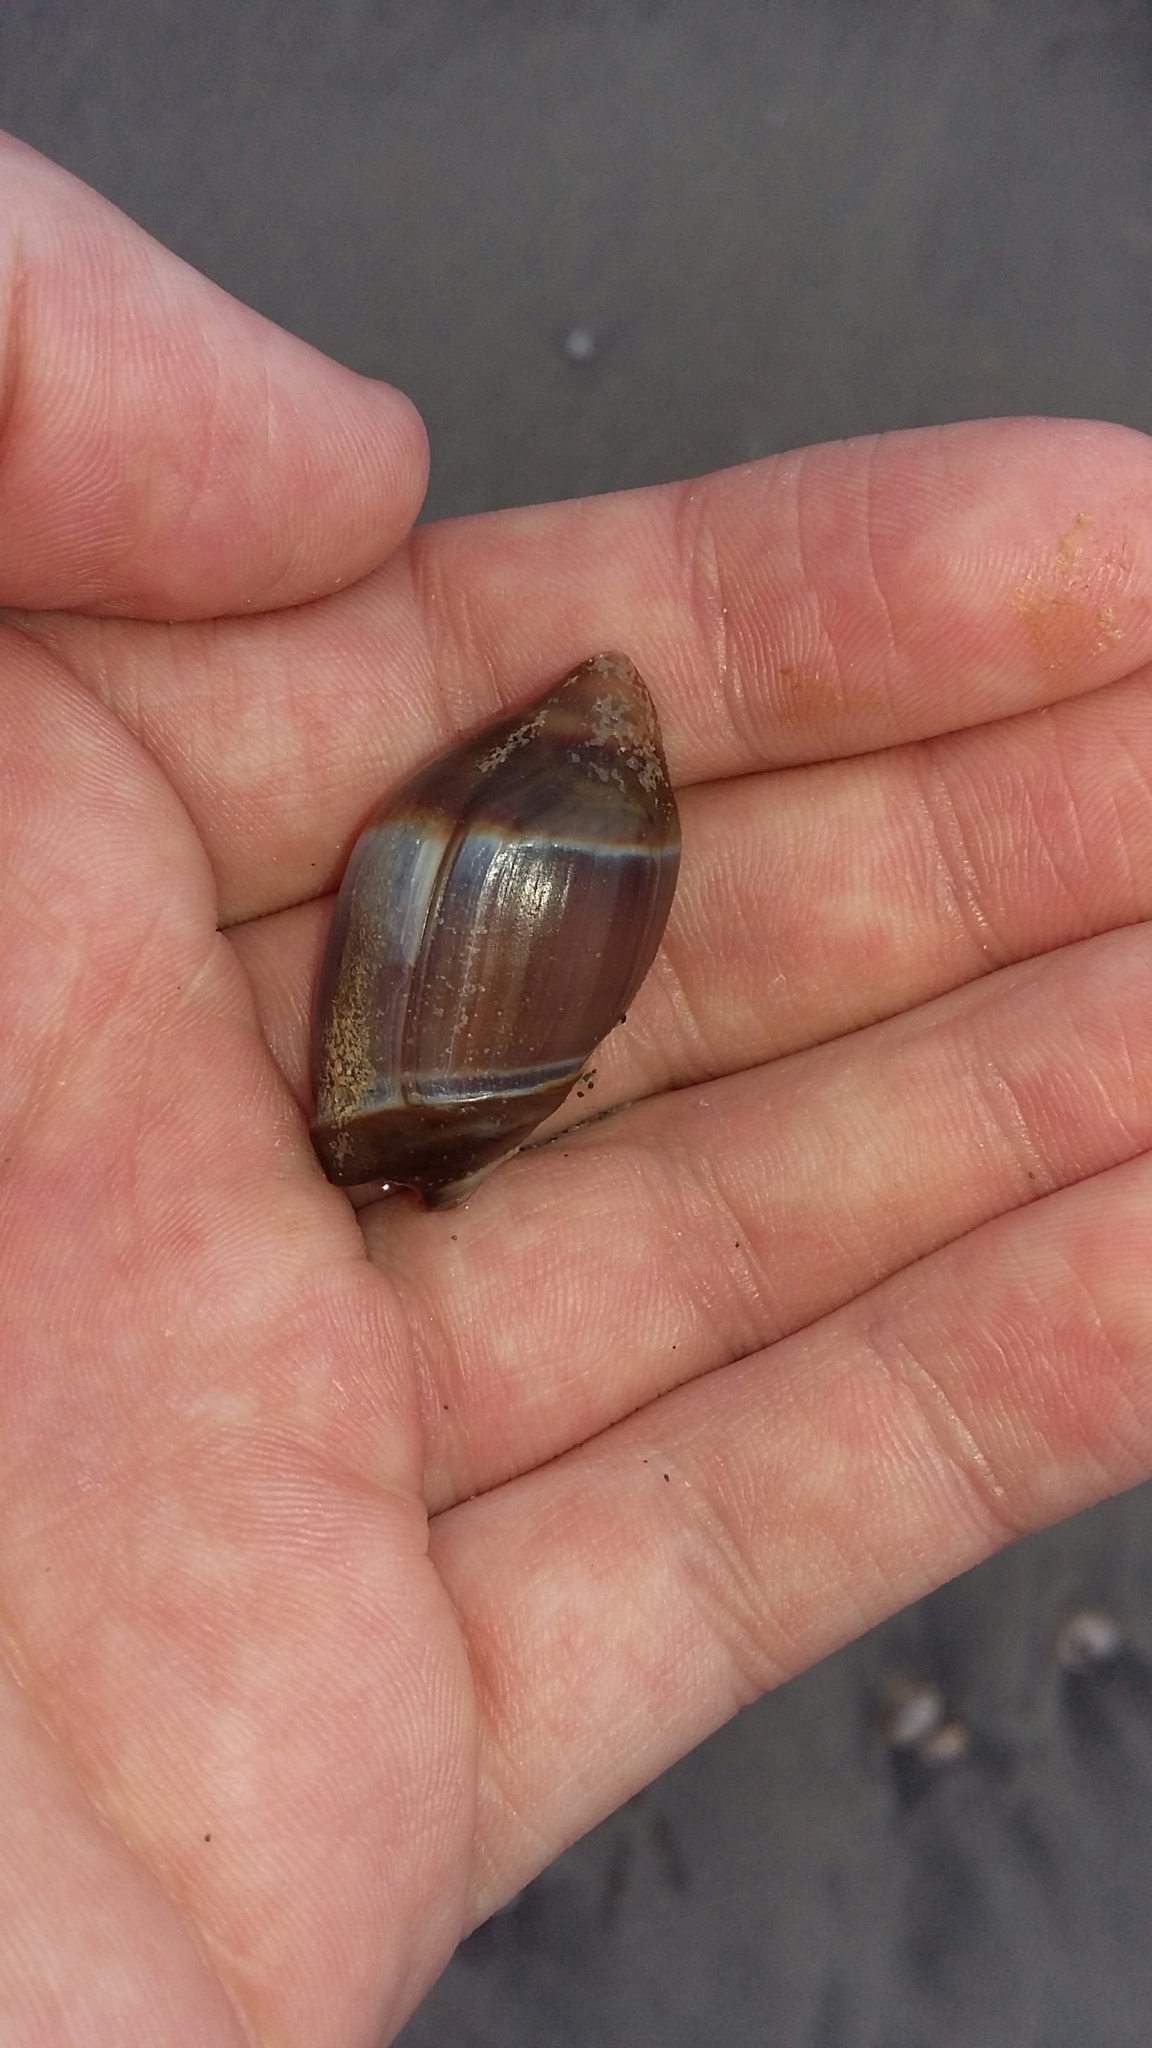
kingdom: Animalia
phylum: Mollusca
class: Gastropoda
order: Neogastropoda
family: Ancillariidae
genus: Amalda
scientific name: Amalda australis
